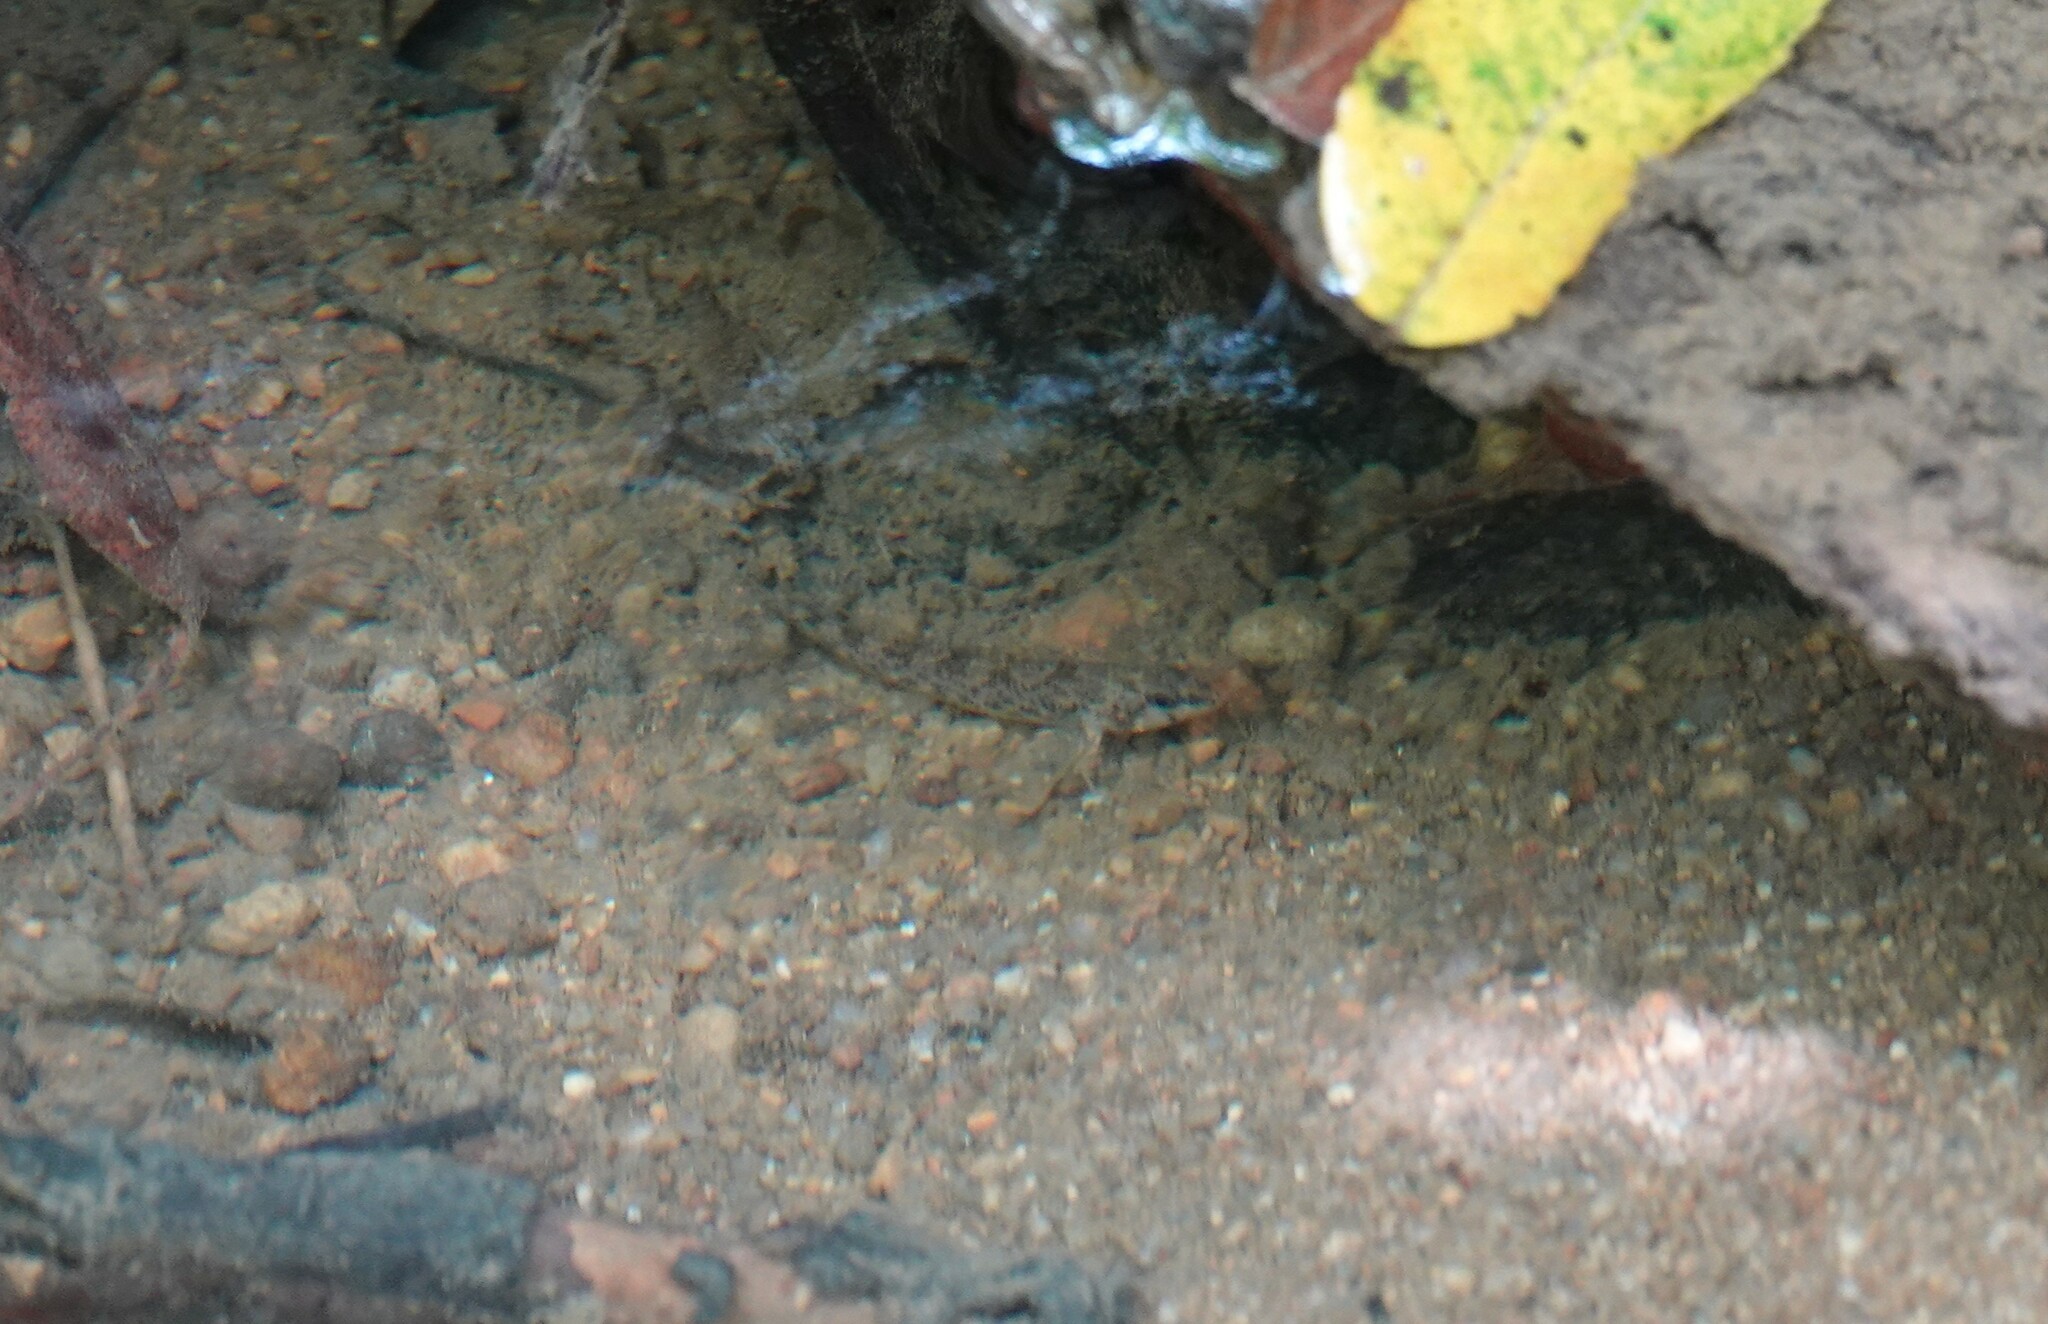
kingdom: Animalia
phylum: Chordata
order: Perciformes
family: Percidae
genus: Etheostoma
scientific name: Etheostoma olmstedi
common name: Tessellated darter
